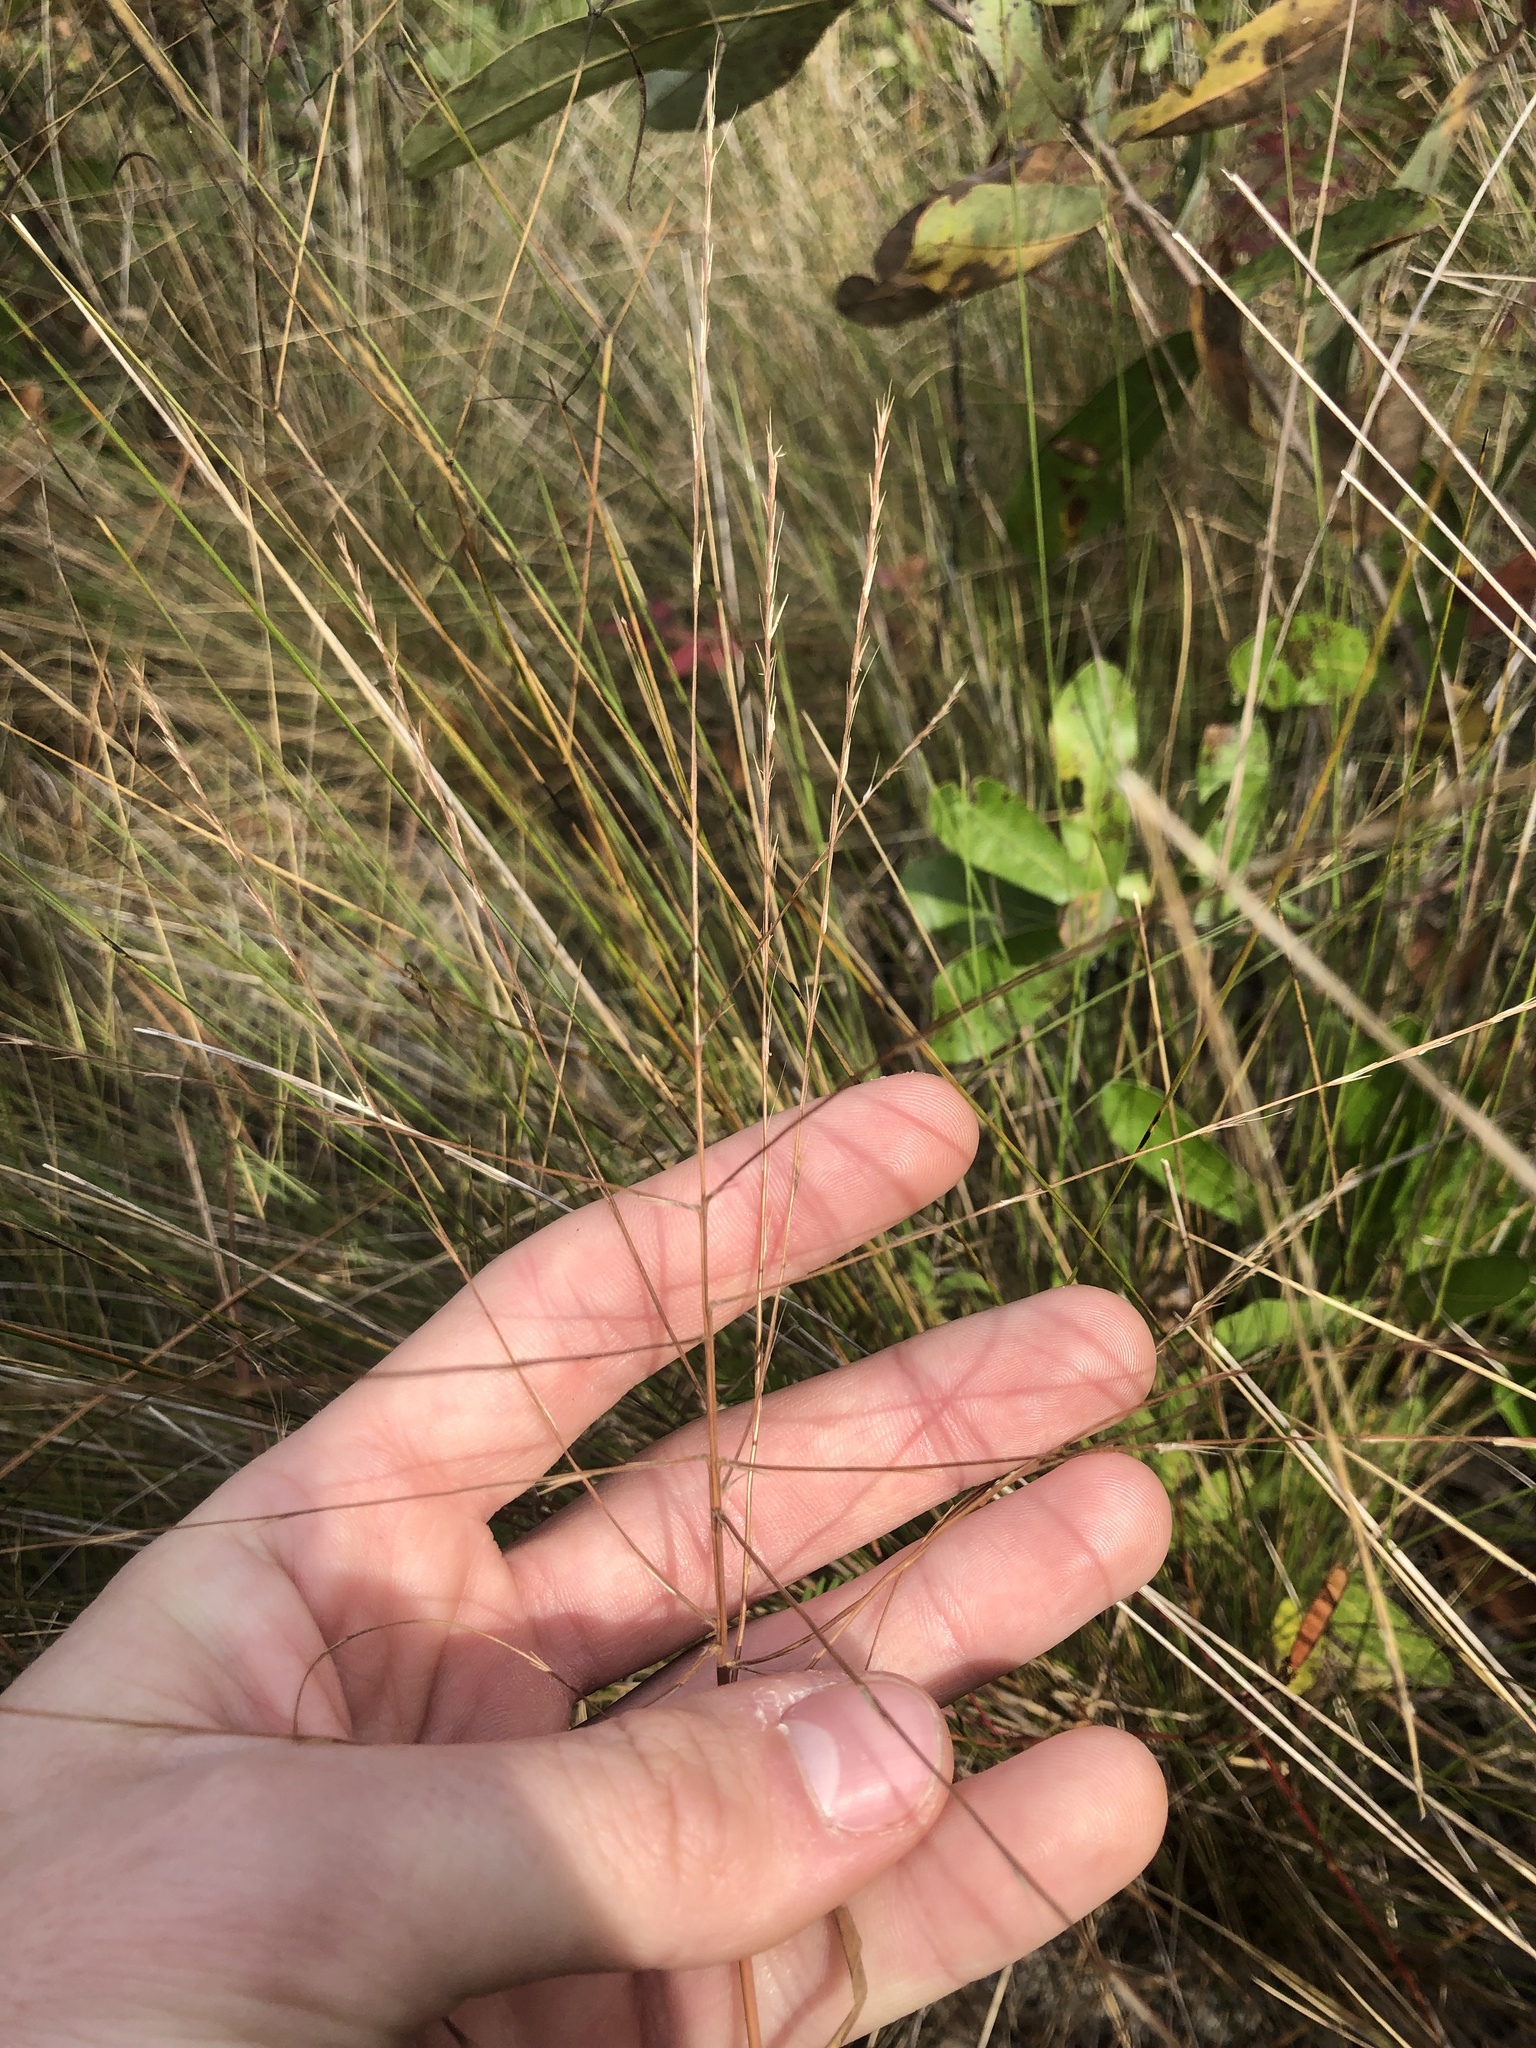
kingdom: Plantae
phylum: Tracheophyta
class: Liliopsida
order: Poales
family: Poaceae
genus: Gymnopogon
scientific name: Gymnopogon ambiguus
